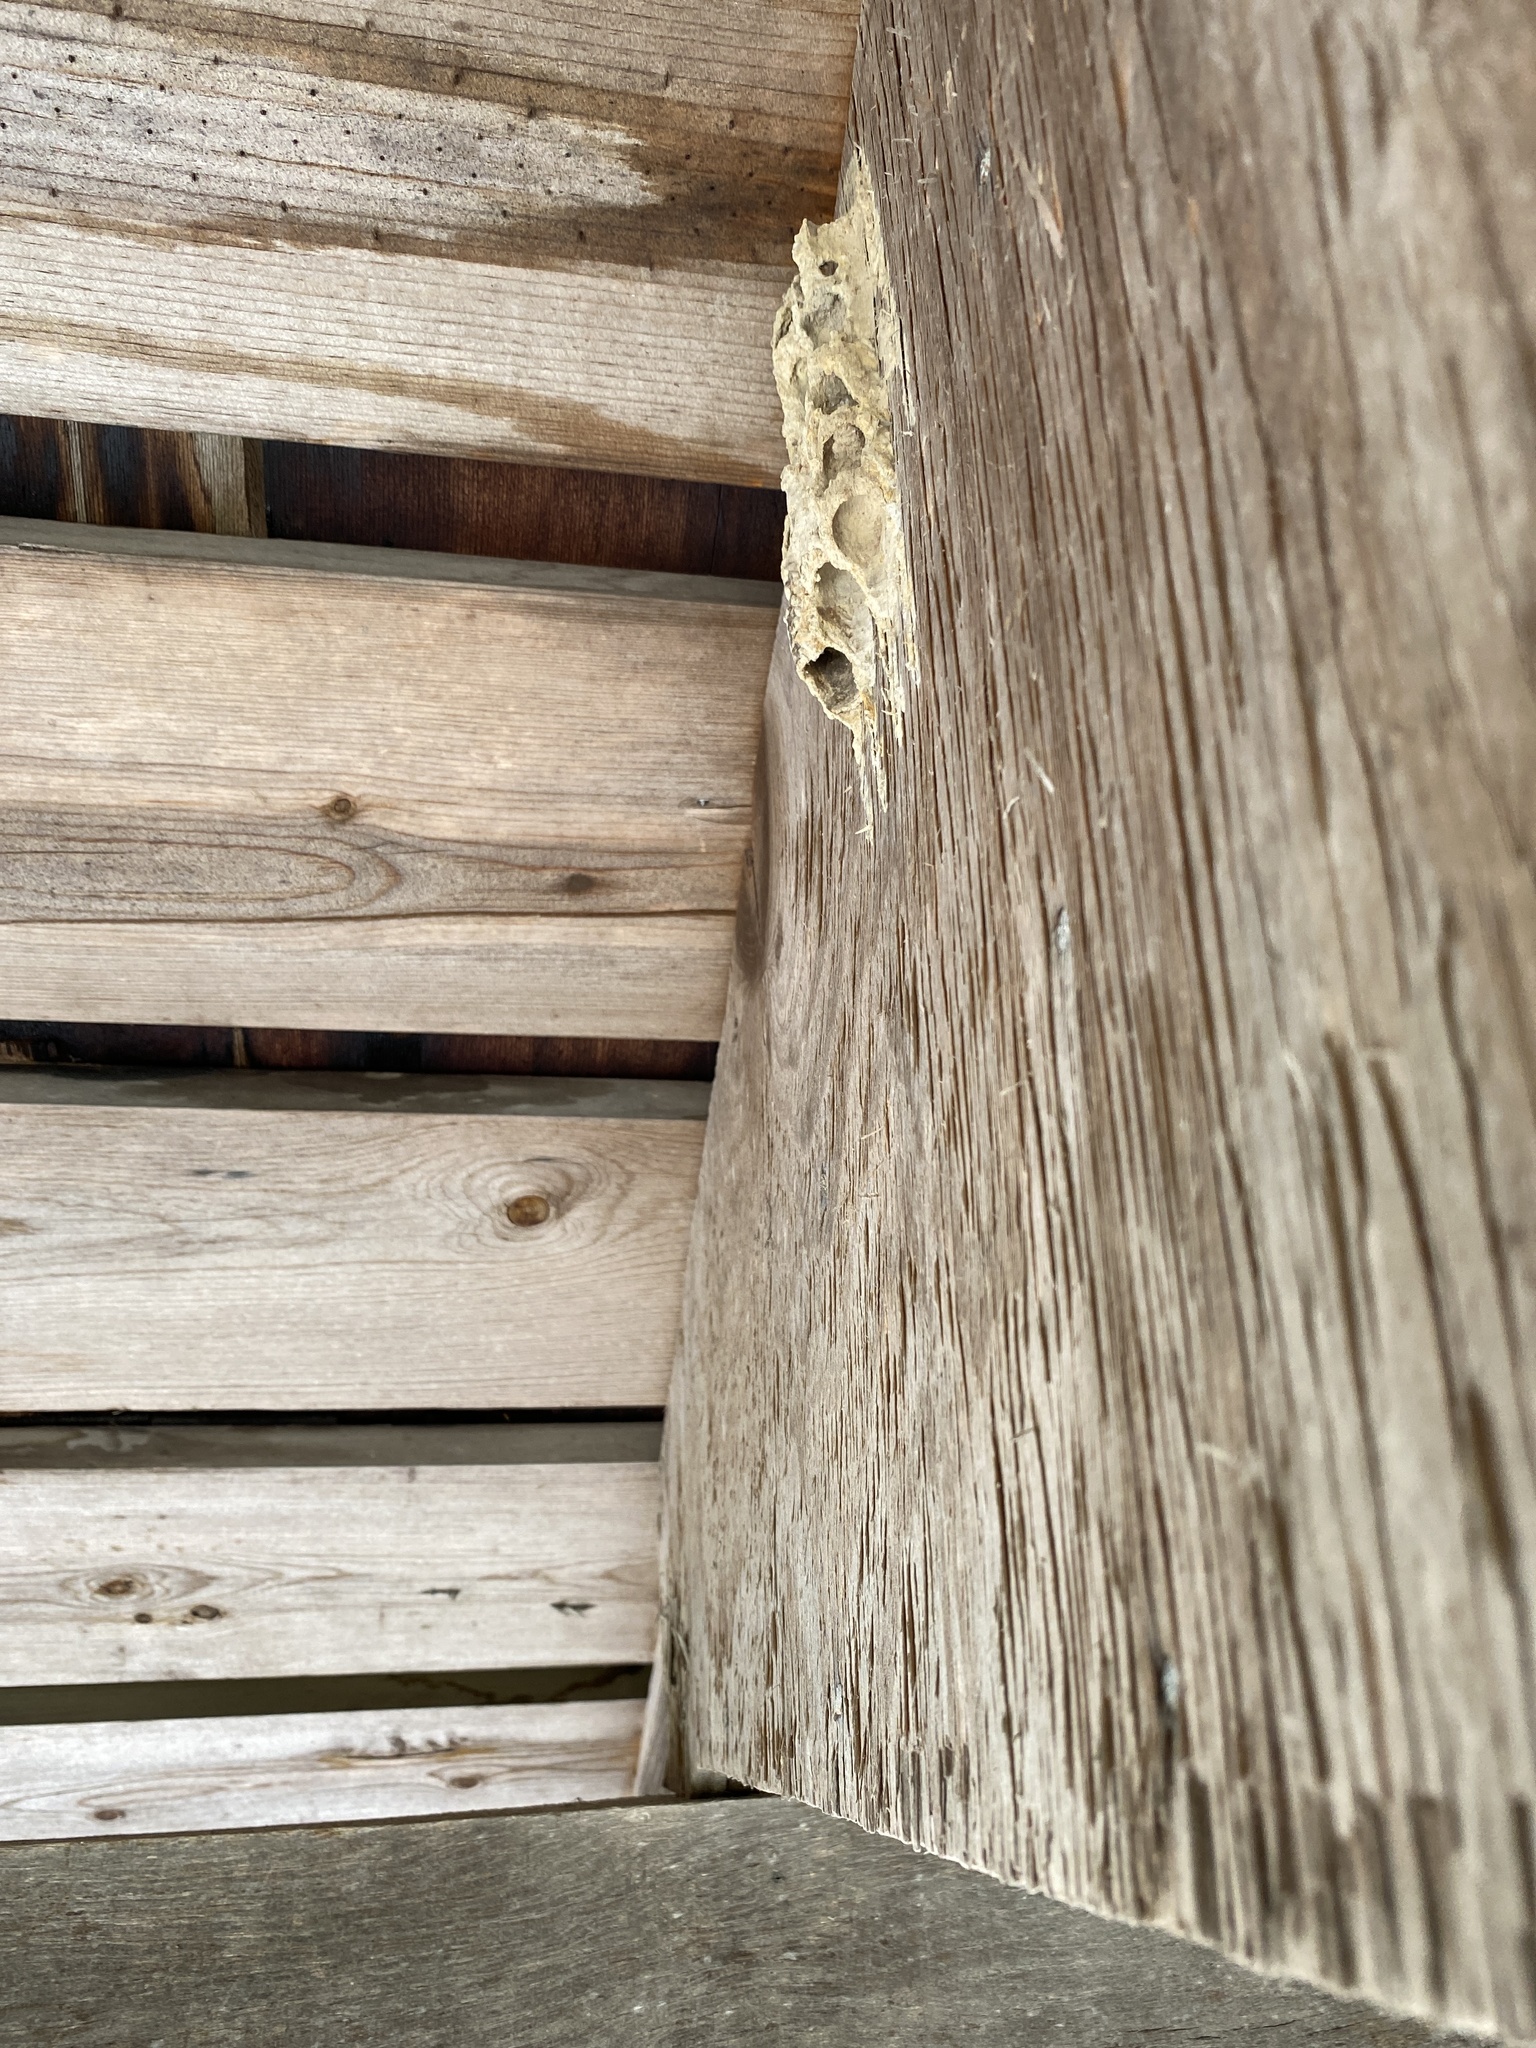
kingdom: Animalia
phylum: Arthropoda
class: Insecta
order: Hymenoptera
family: Crabronidae
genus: Trypoxylon
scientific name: Trypoxylon politum
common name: Organ-pipe mud-dauber wasp
